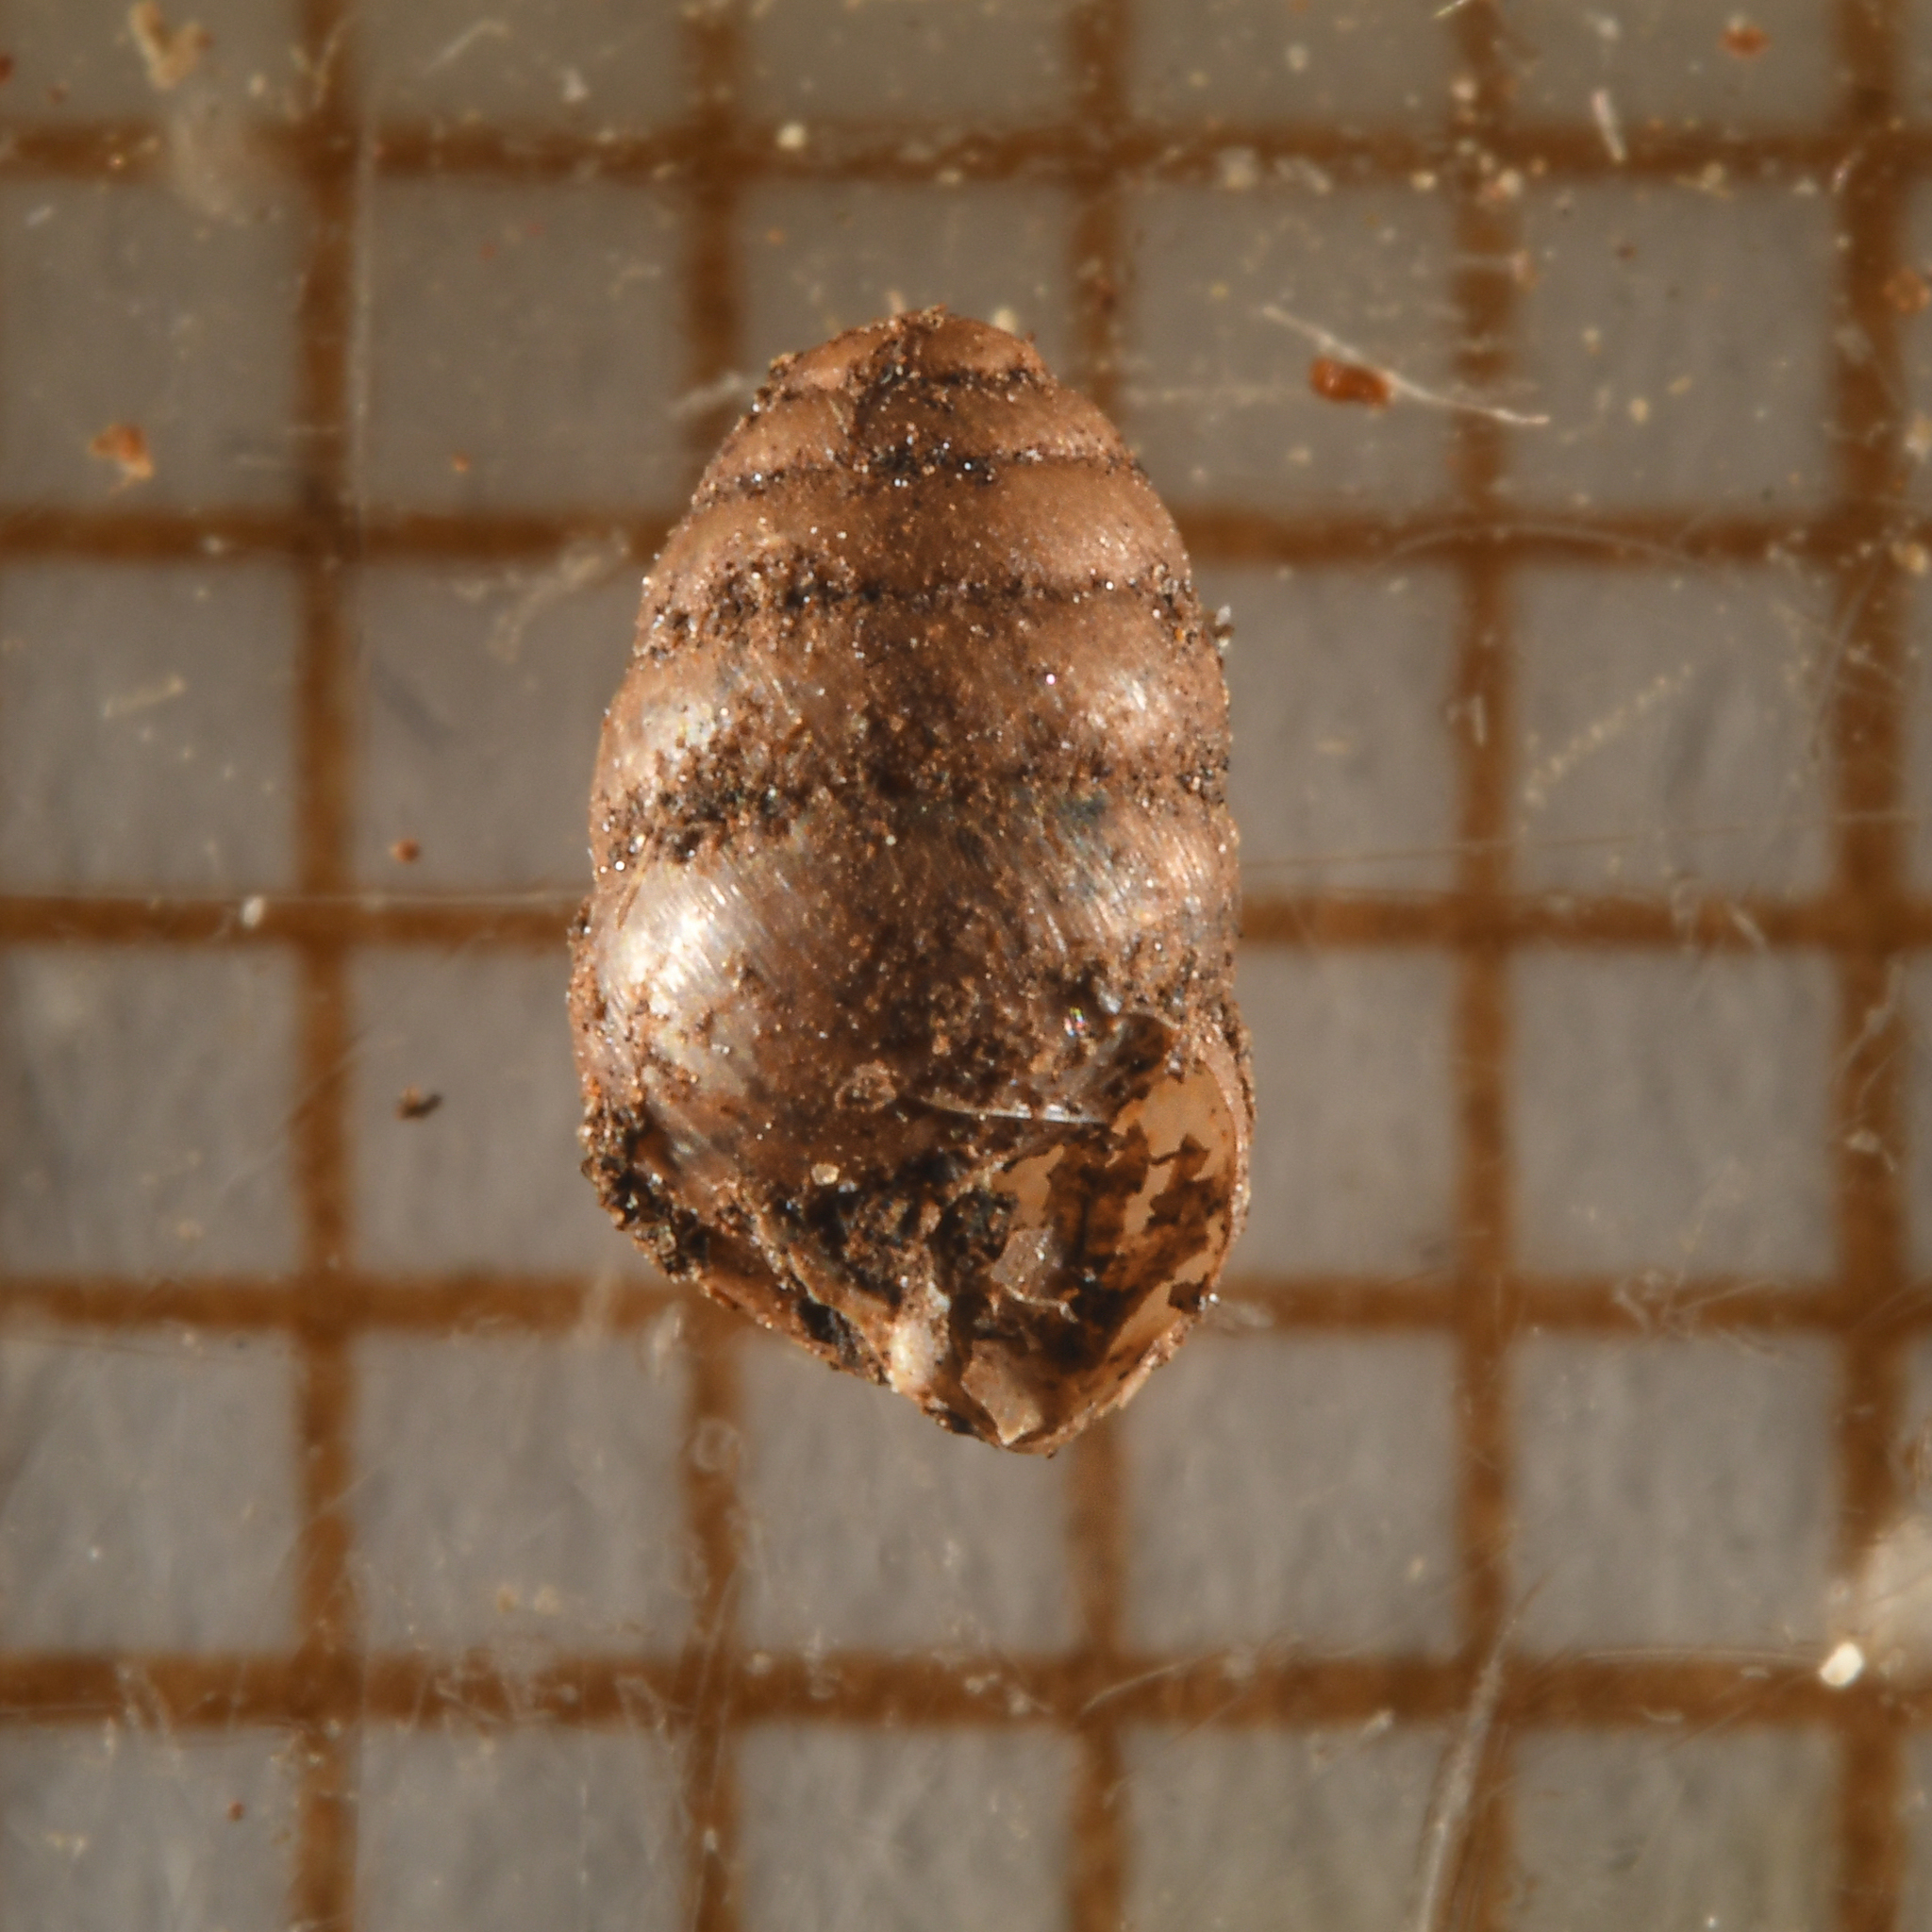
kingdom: Animalia
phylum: Mollusca
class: Gastropoda
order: Stylommatophora
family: Lauriidae
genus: Lauria
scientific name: Lauria cylindracea
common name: Common chrysalis snail
